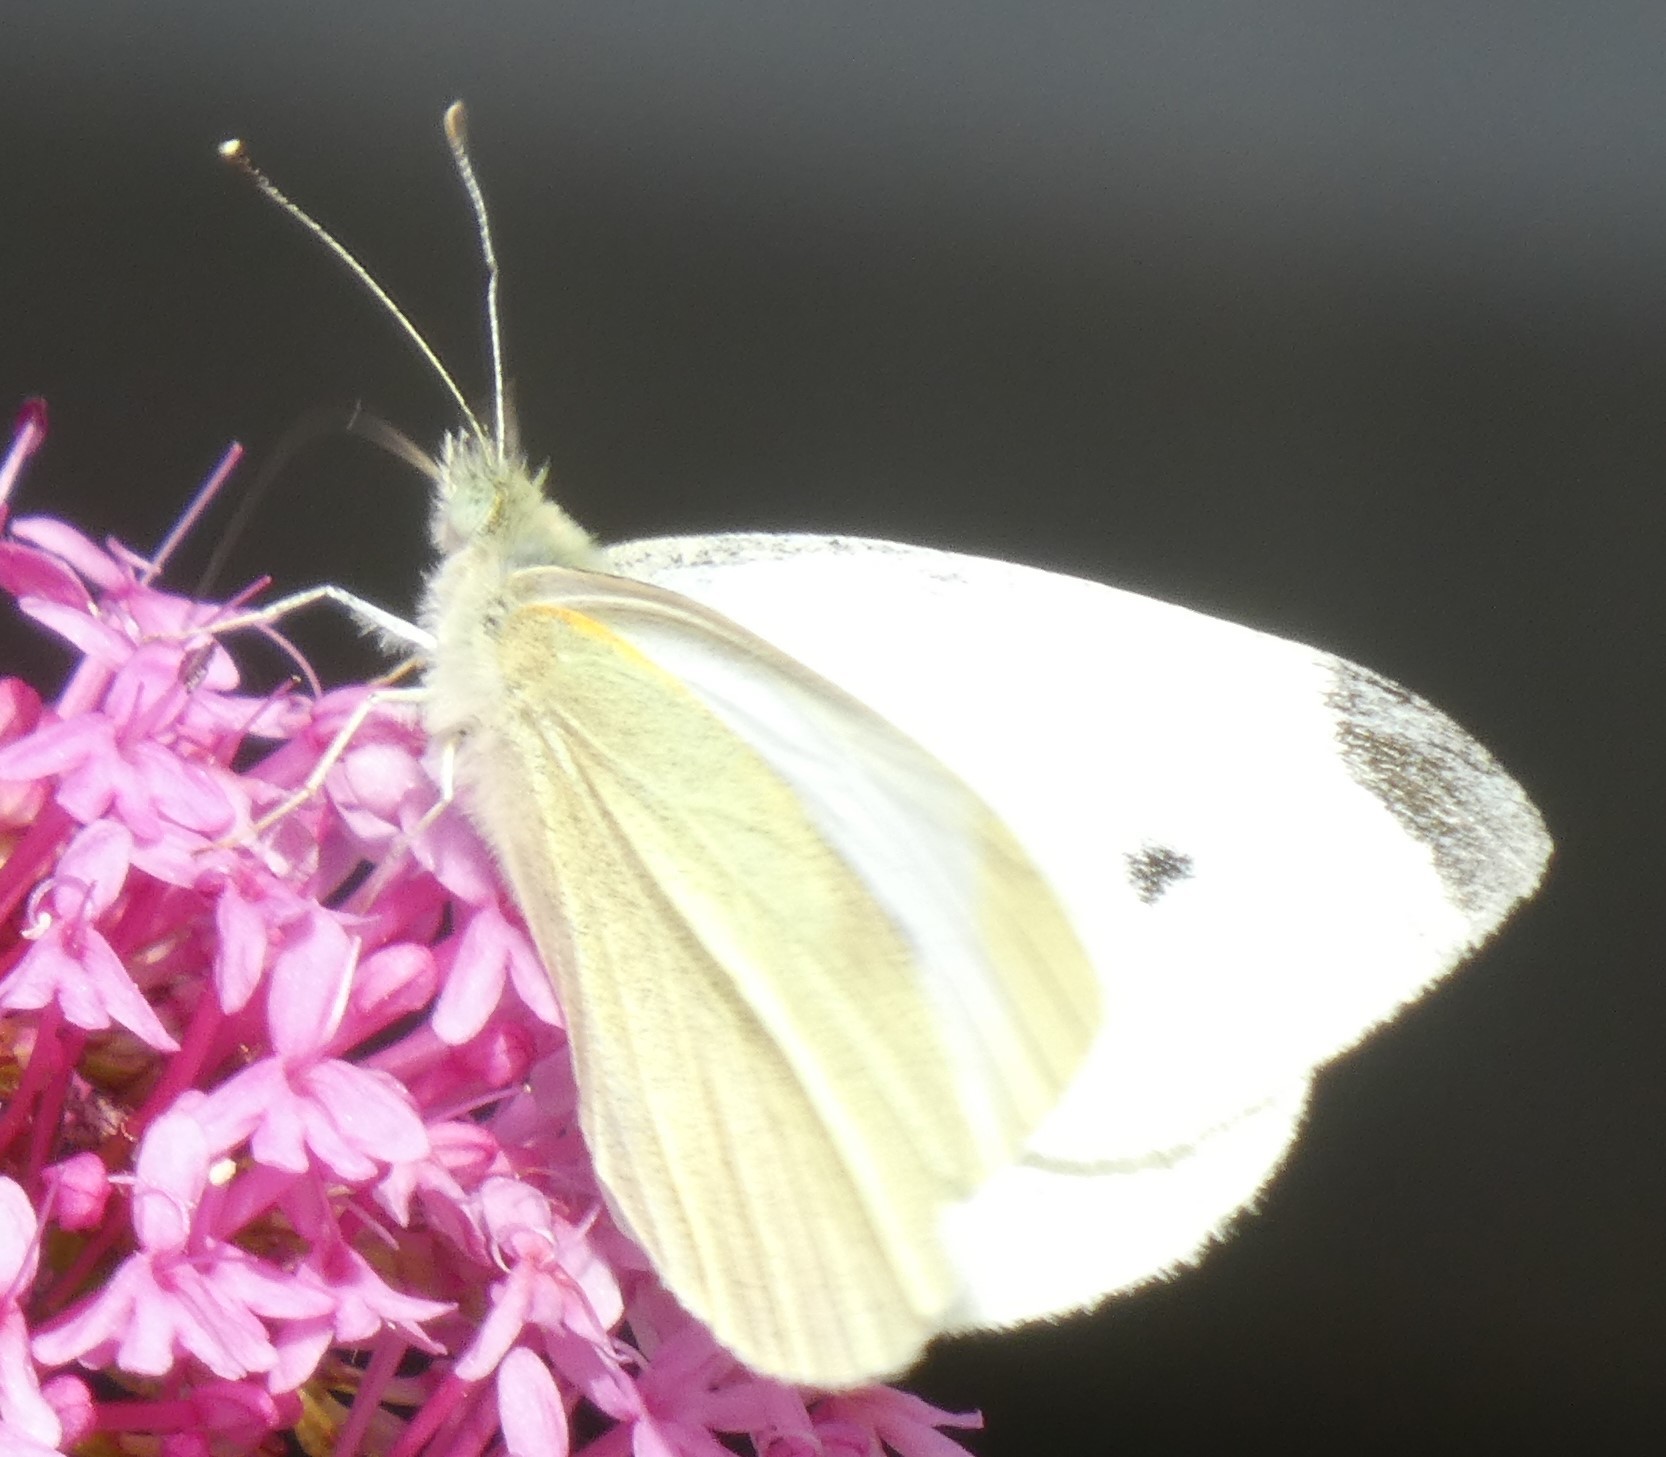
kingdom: Animalia
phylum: Arthropoda
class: Insecta
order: Lepidoptera
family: Pieridae
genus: Pieris
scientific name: Pieris rapae
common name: Small white
